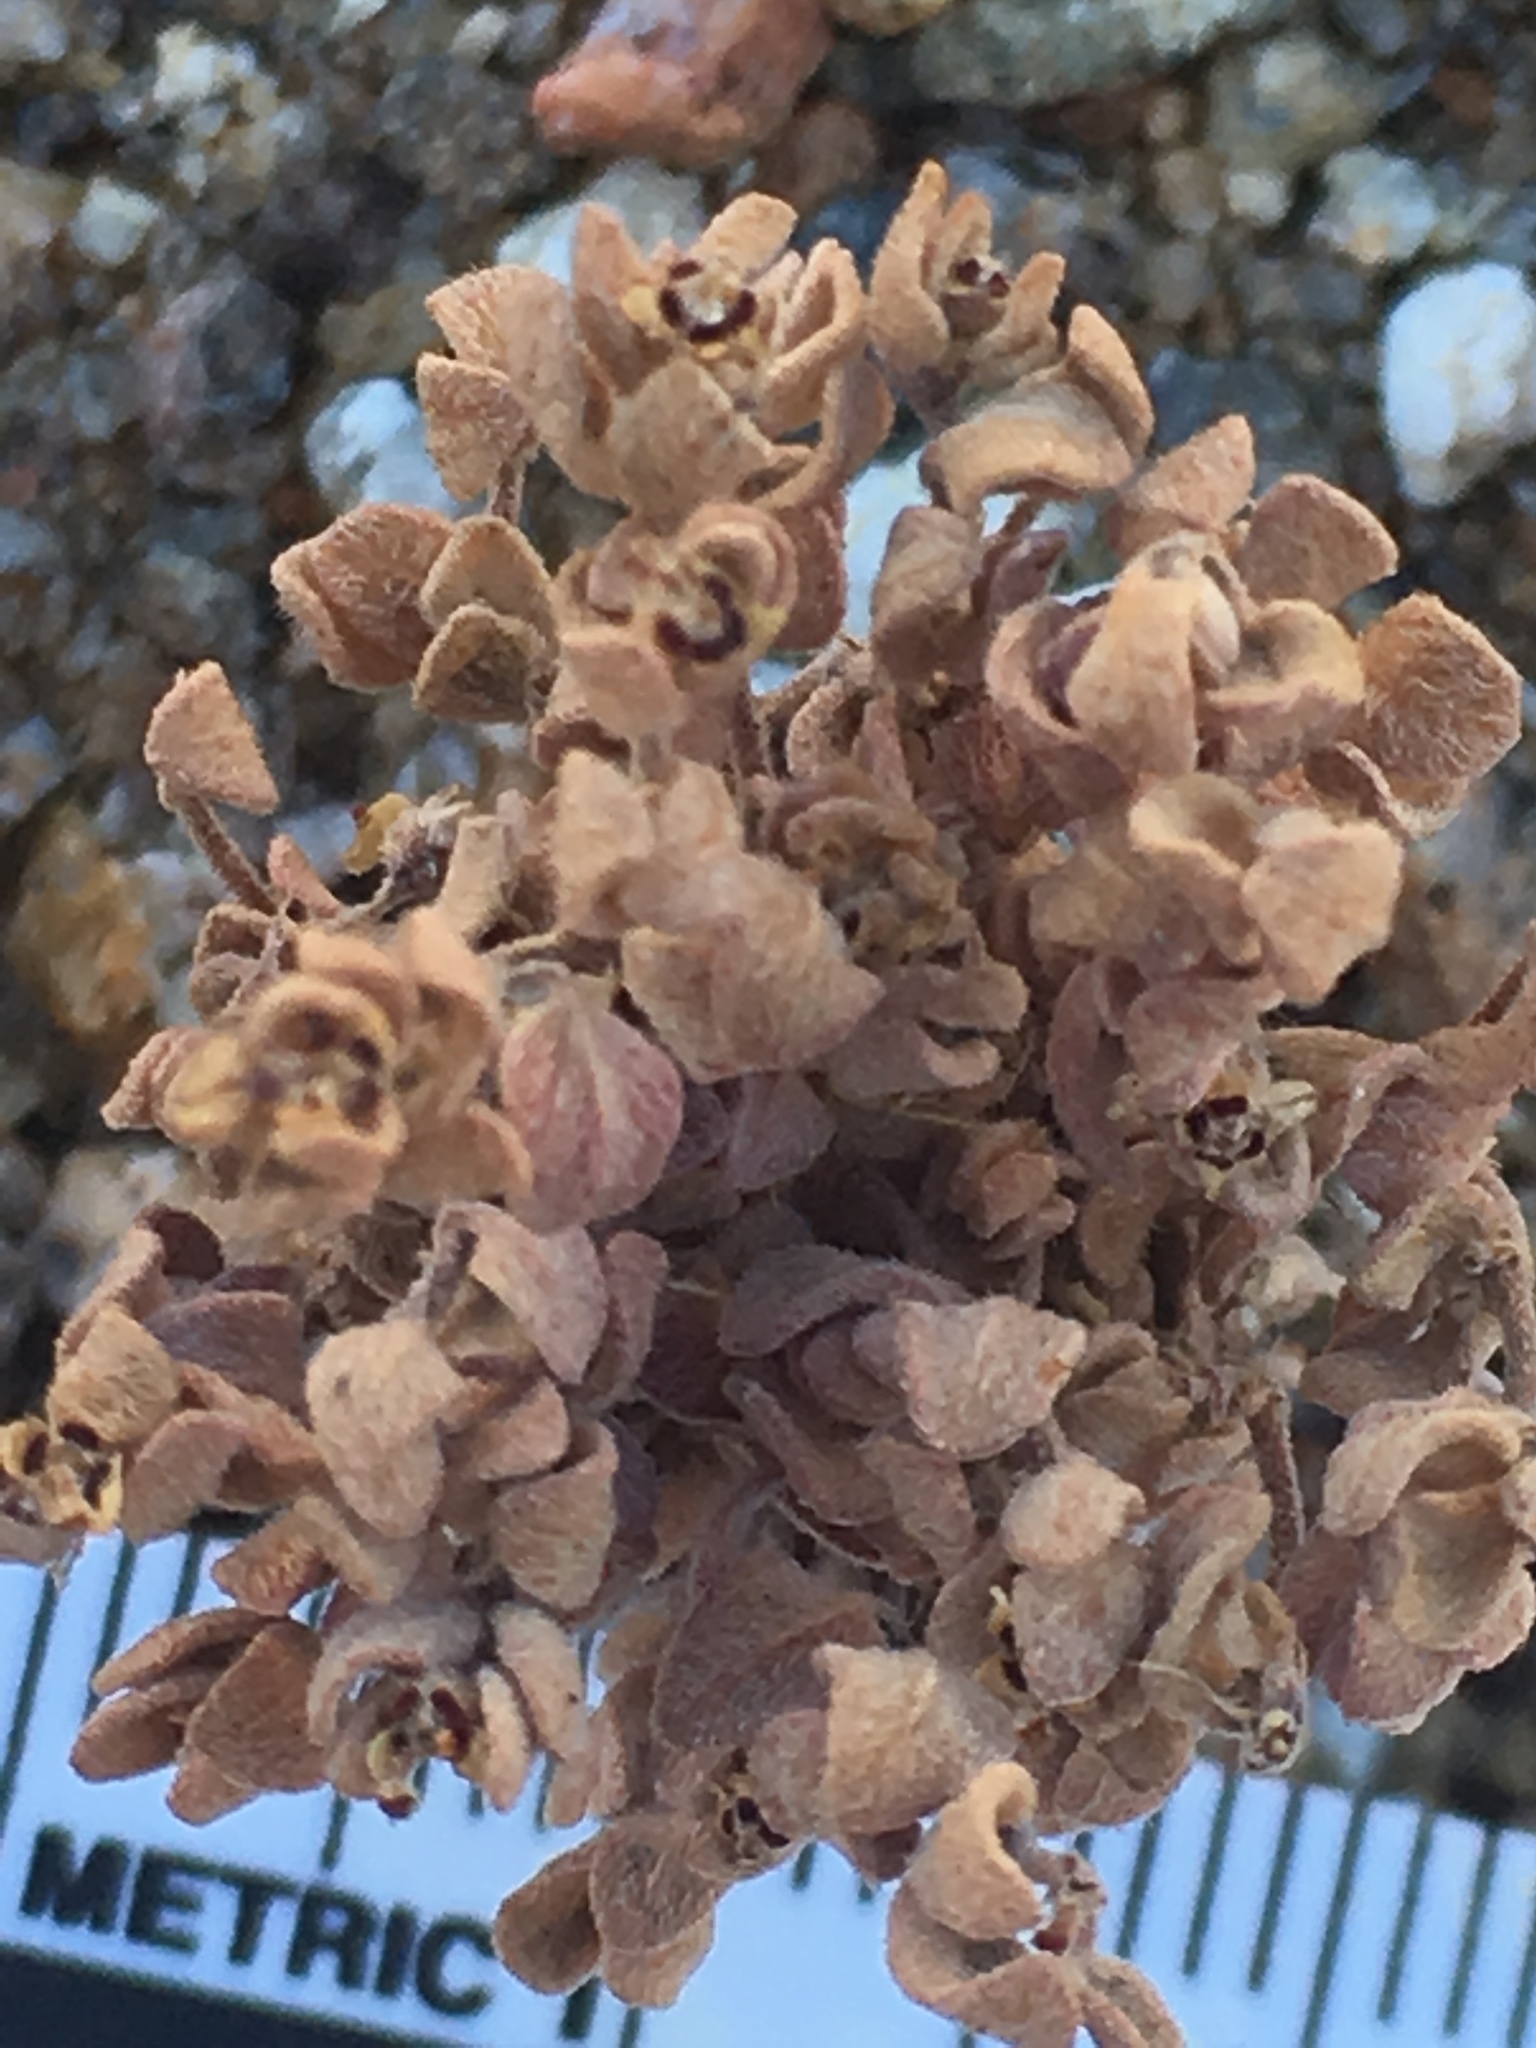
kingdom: Plantae
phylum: Tracheophyta
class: Magnoliopsida
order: Malpighiales
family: Euphorbiaceae
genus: Euphorbia
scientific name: Euphorbia melanadenia
